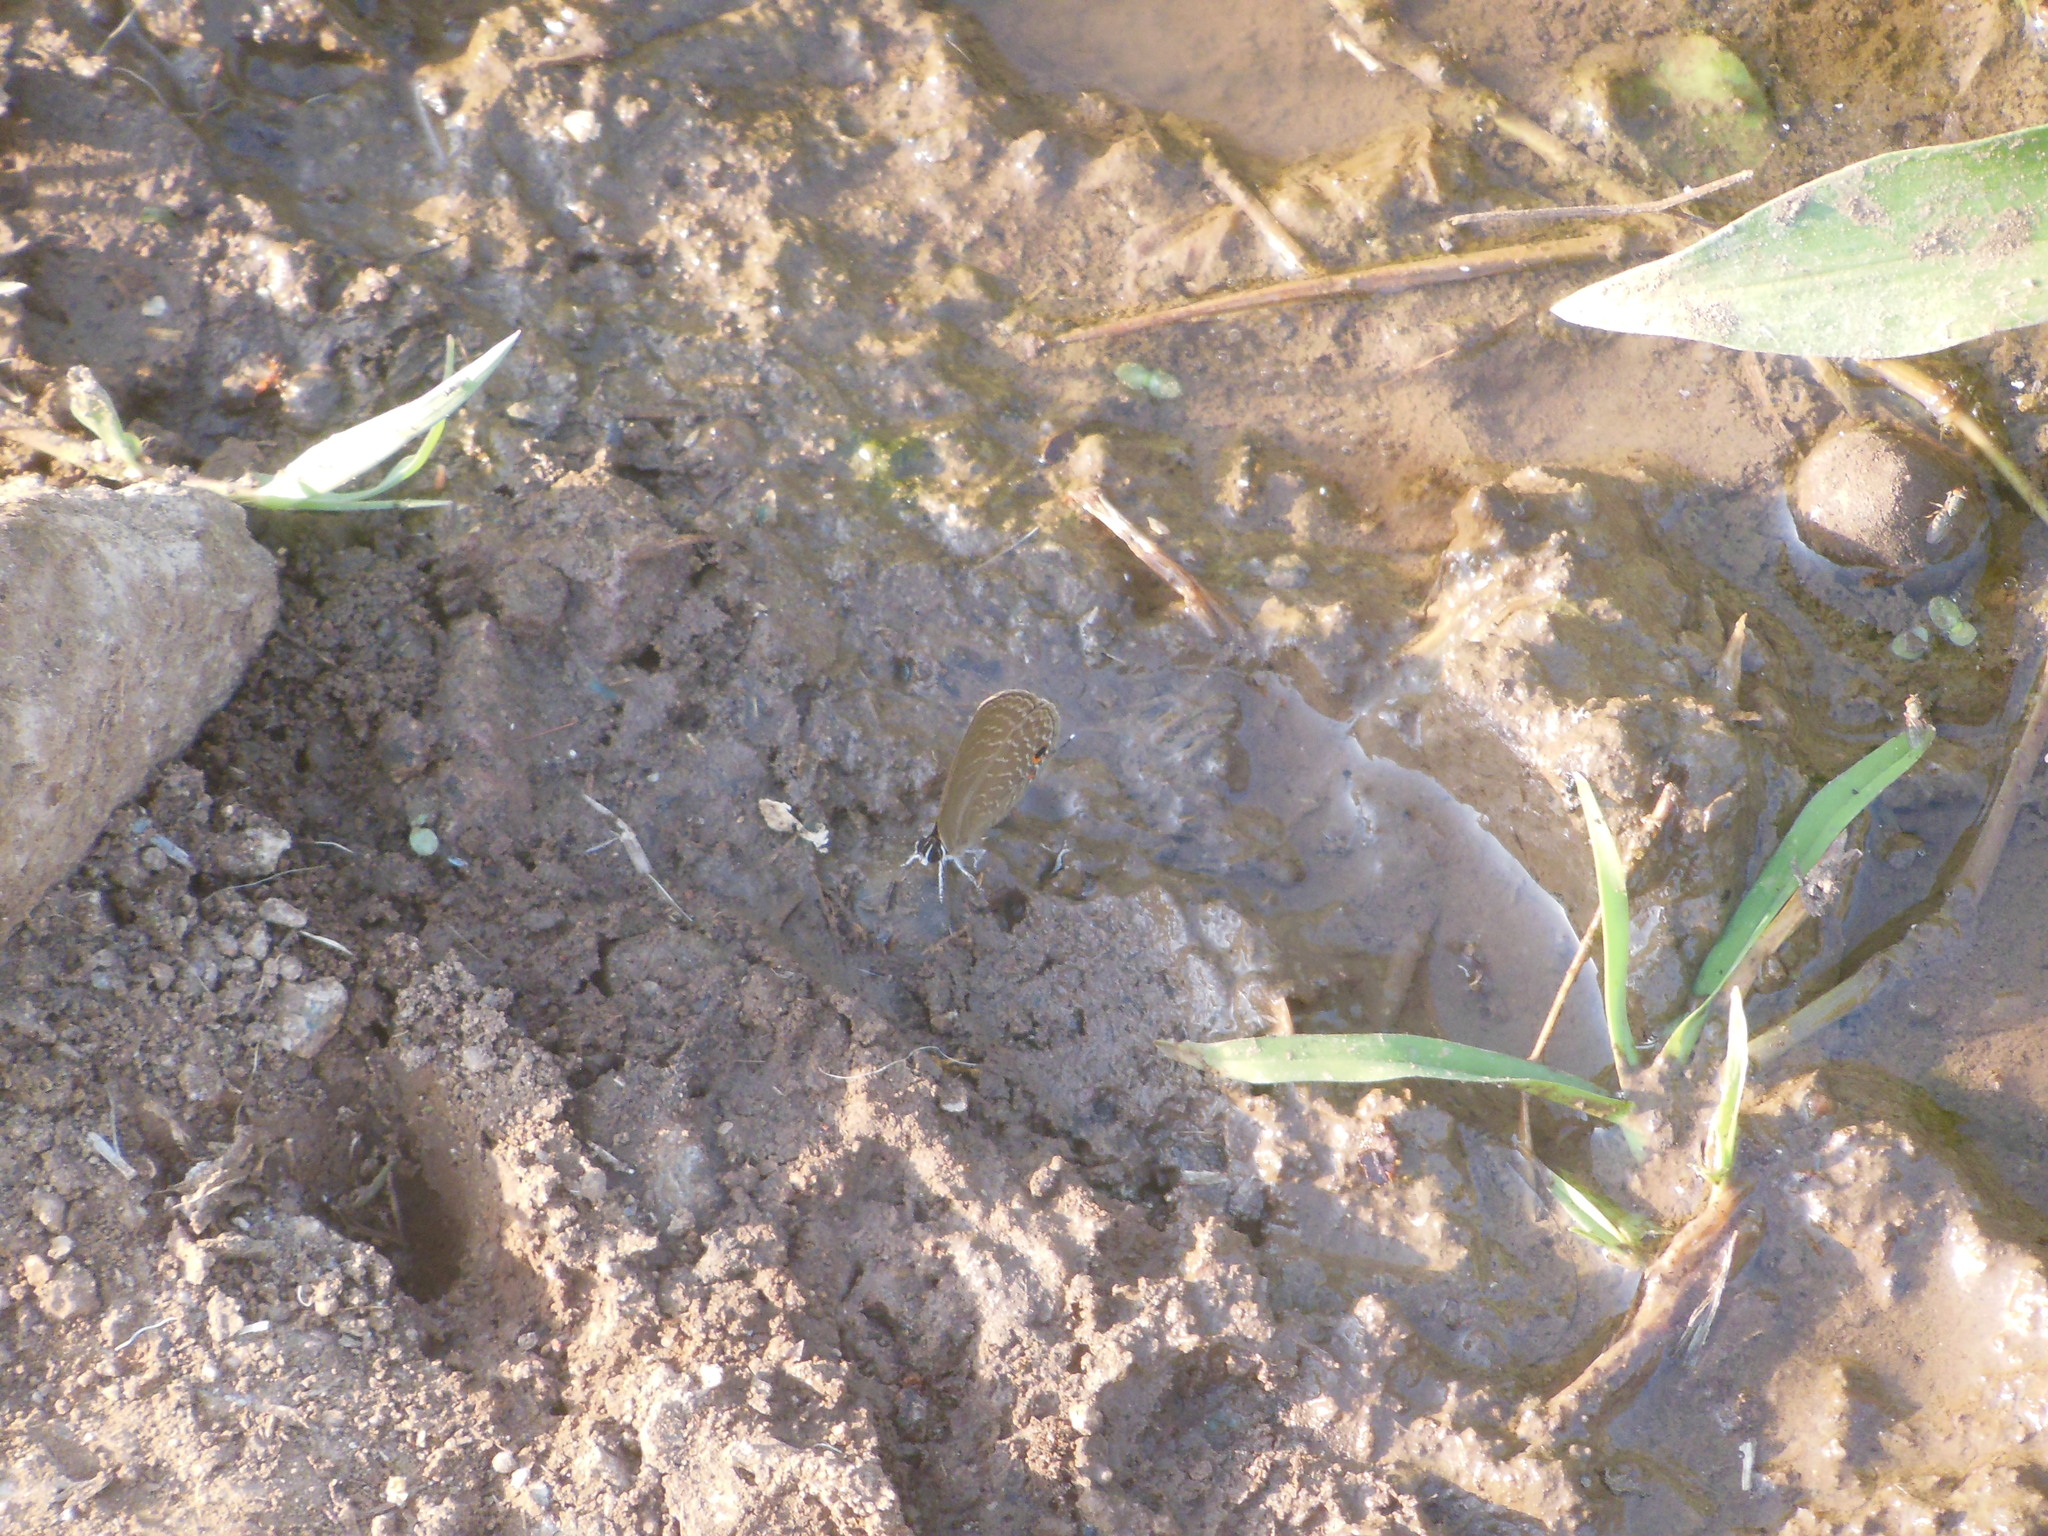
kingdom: Animalia
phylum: Arthropoda
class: Insecta
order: Lepidoptera
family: Lycaenidae
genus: Jamides
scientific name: Jamides bochus
